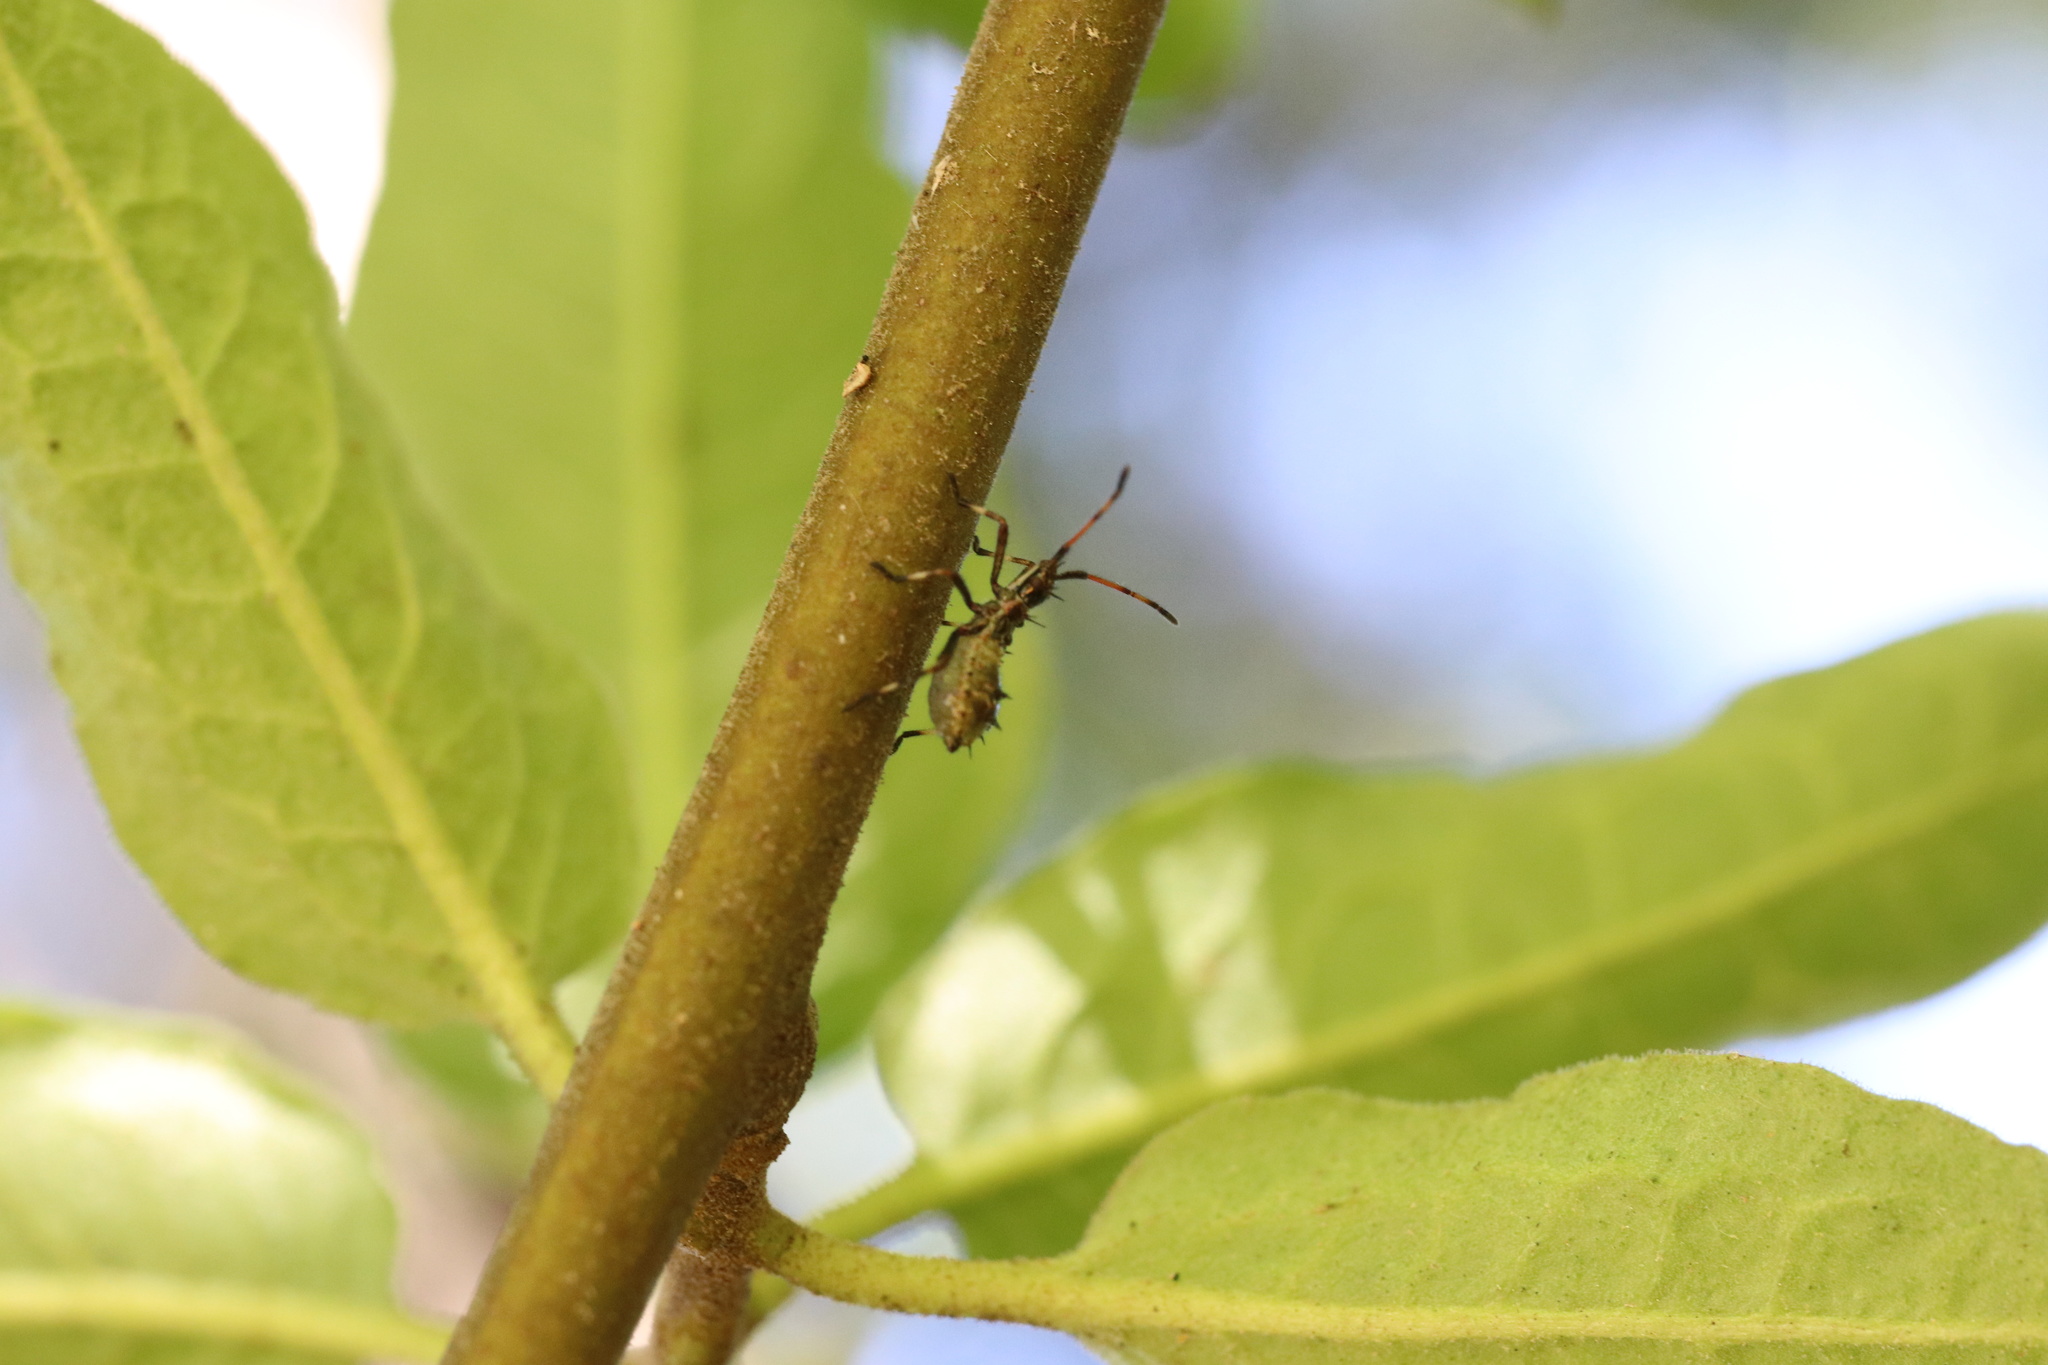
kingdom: Animalia
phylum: Arthropoda
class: Insecta
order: Hemiptera
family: Coreidae
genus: Leptoglossus
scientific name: Leptoglossus chilensis
